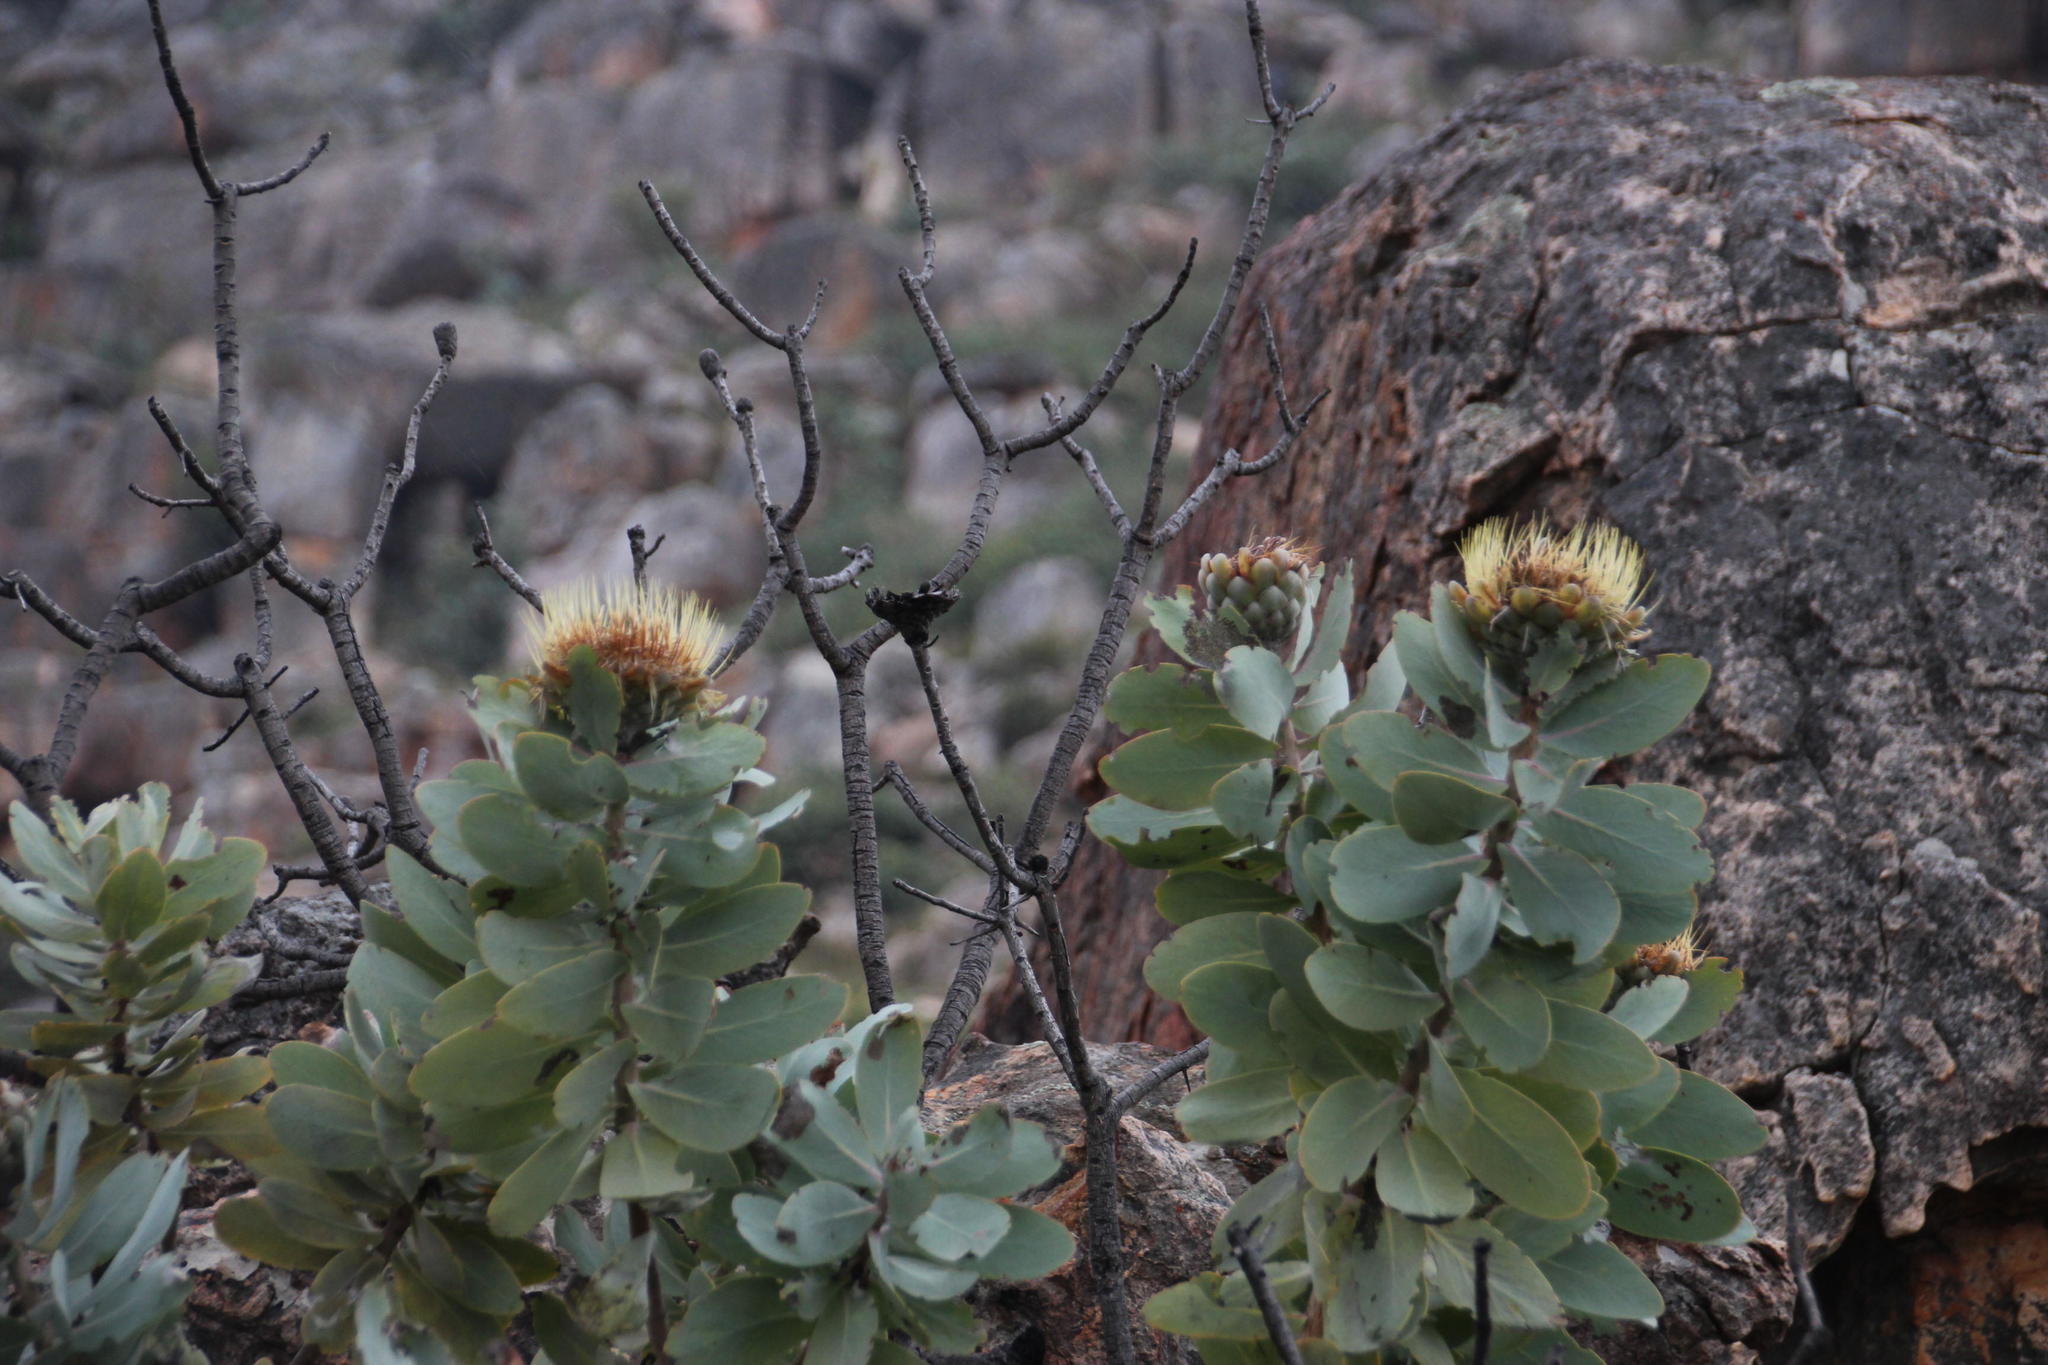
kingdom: Plantae
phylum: Tracheophyta
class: Magnoliopsida
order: Proteales
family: Proteaceae
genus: Protea
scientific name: Protea nitida
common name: Tree protea
